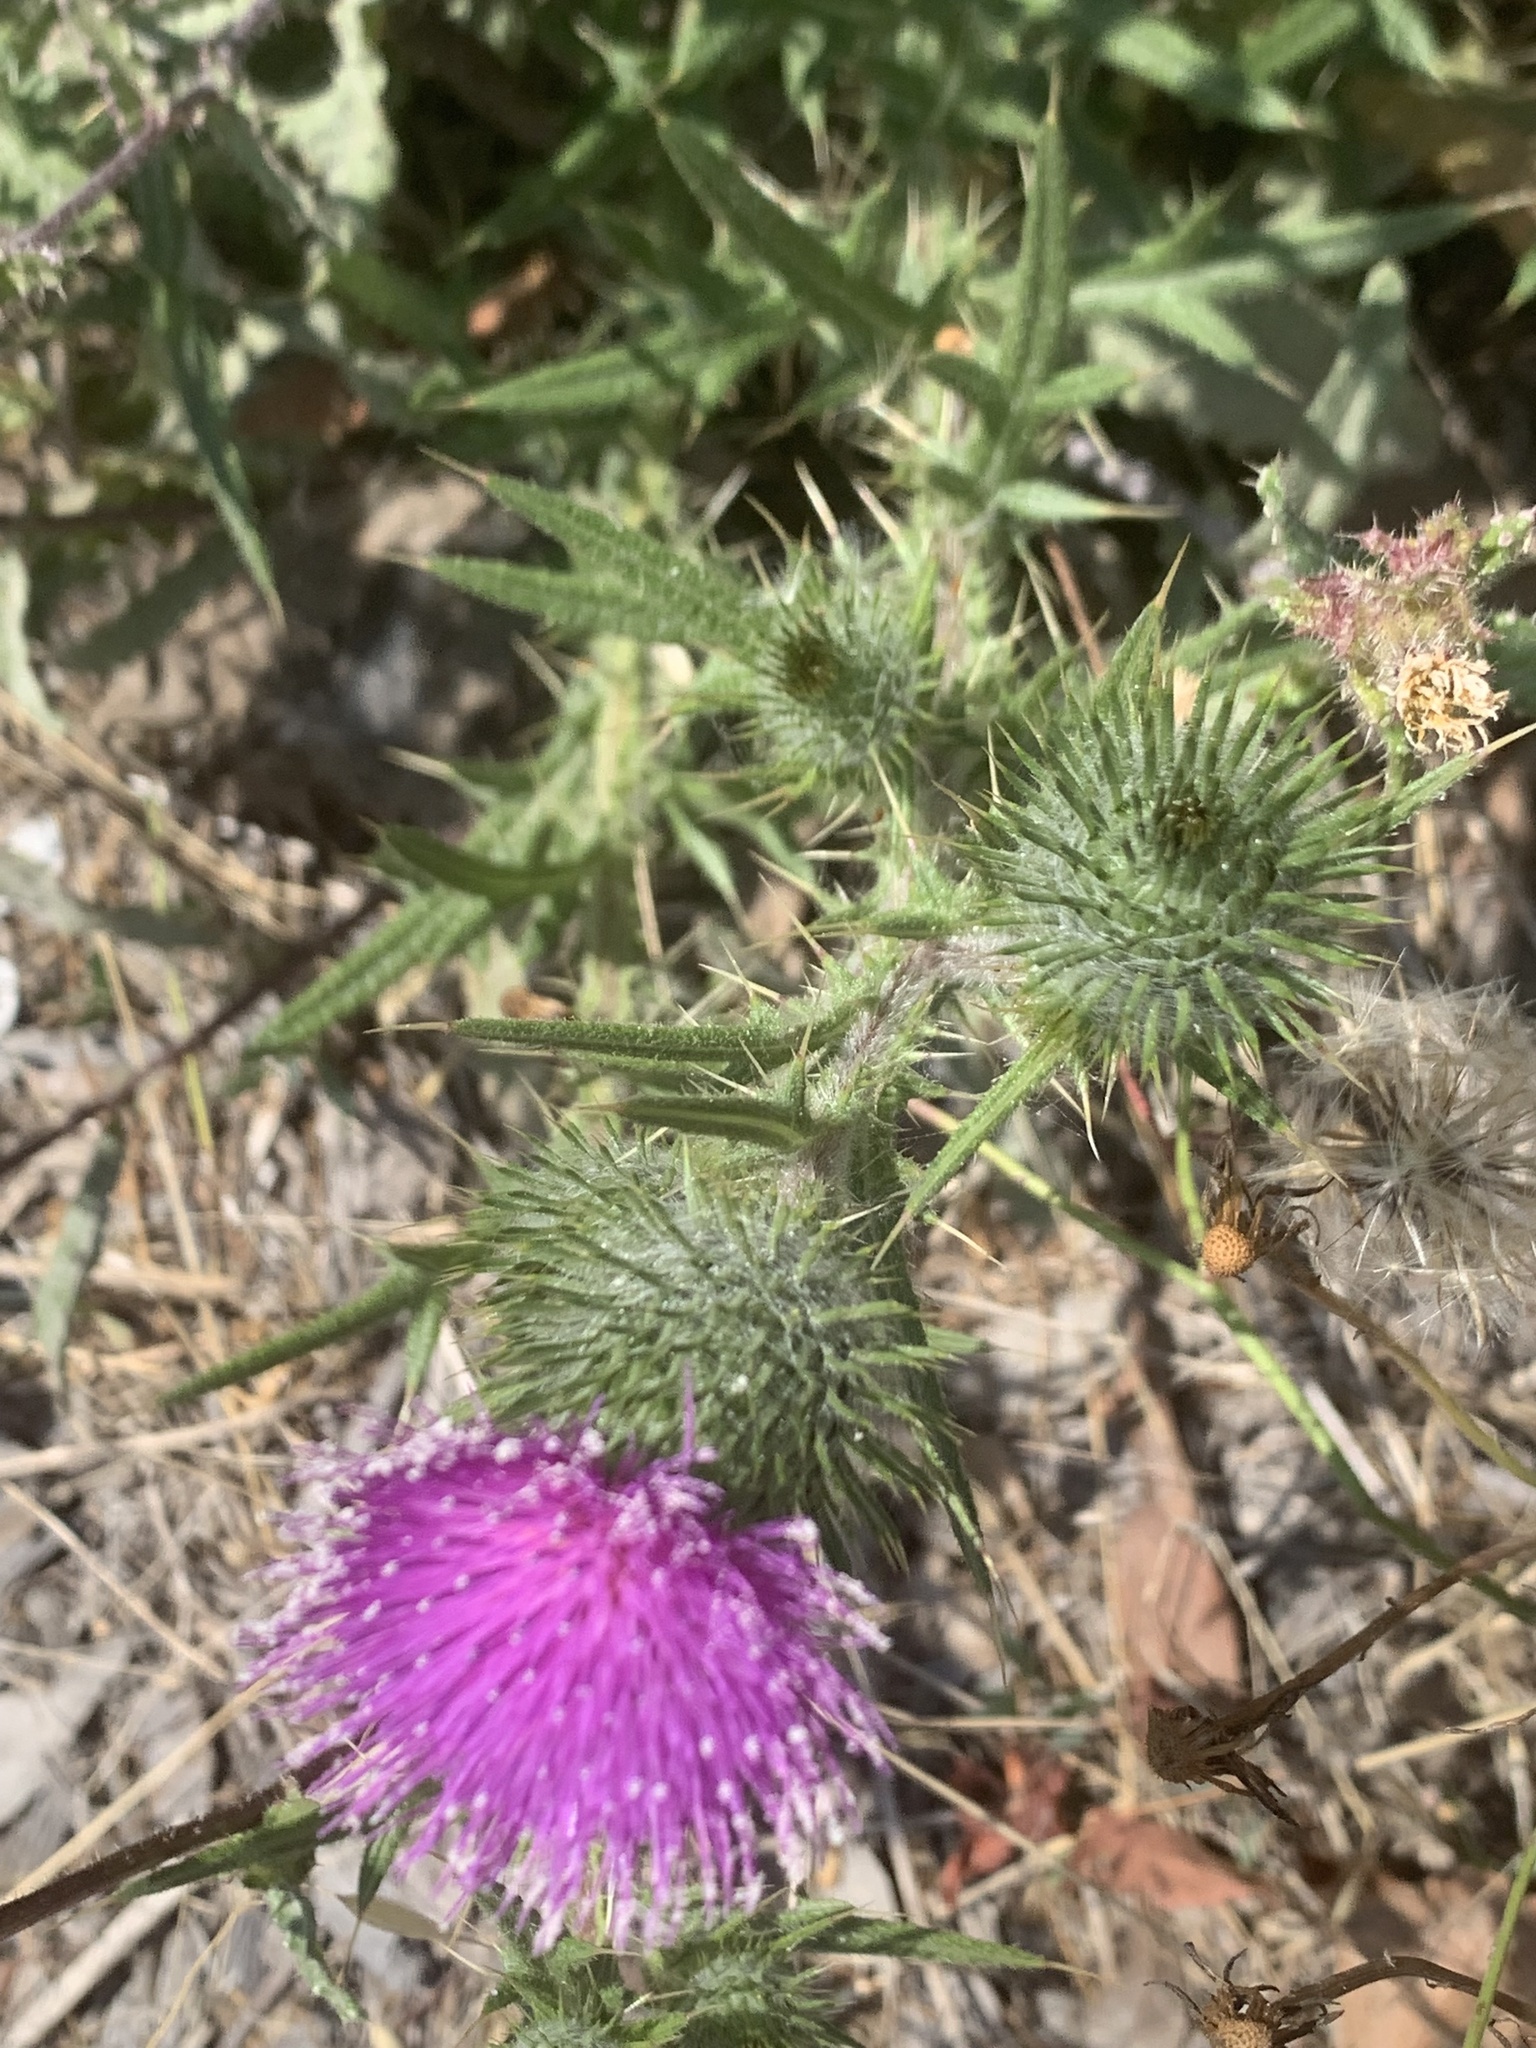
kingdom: Plantae
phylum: Tracheophyta
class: Magnoliopsida
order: Asterales
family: Asteraceae
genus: Cirsium
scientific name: Cirsium vulgare
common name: Bull thistle
